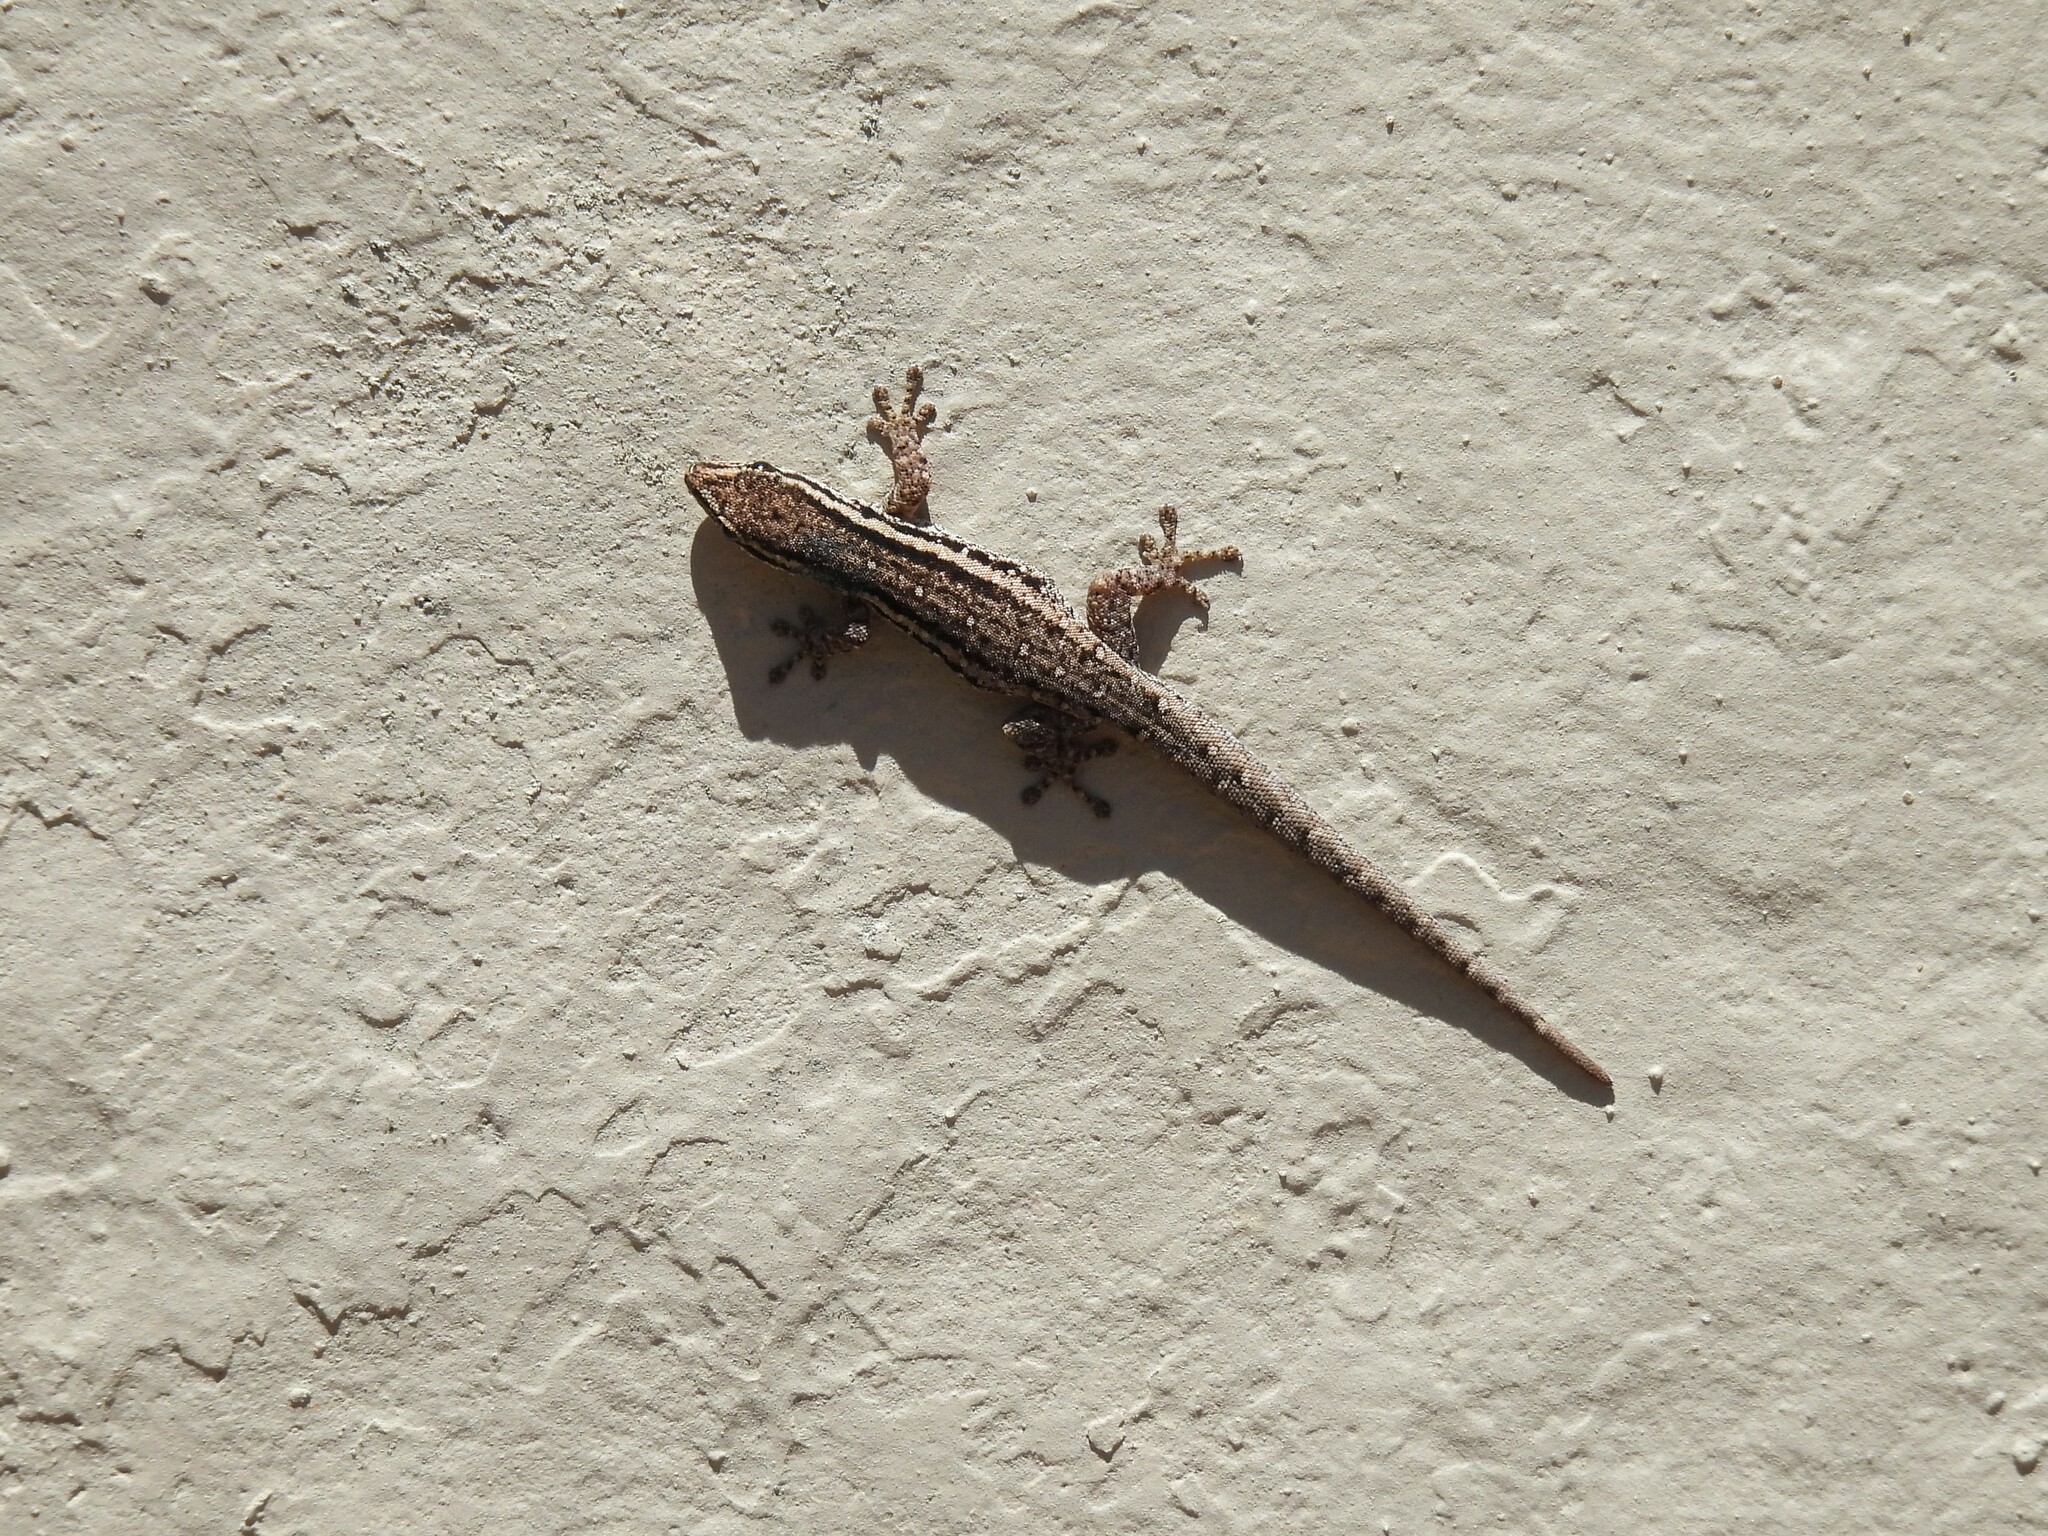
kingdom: Animalia
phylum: Chordata
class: Squamata
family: Gekkonidae
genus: Lygodactylus
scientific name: Lygodactylus capensis
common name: Cape dwarf gecko
